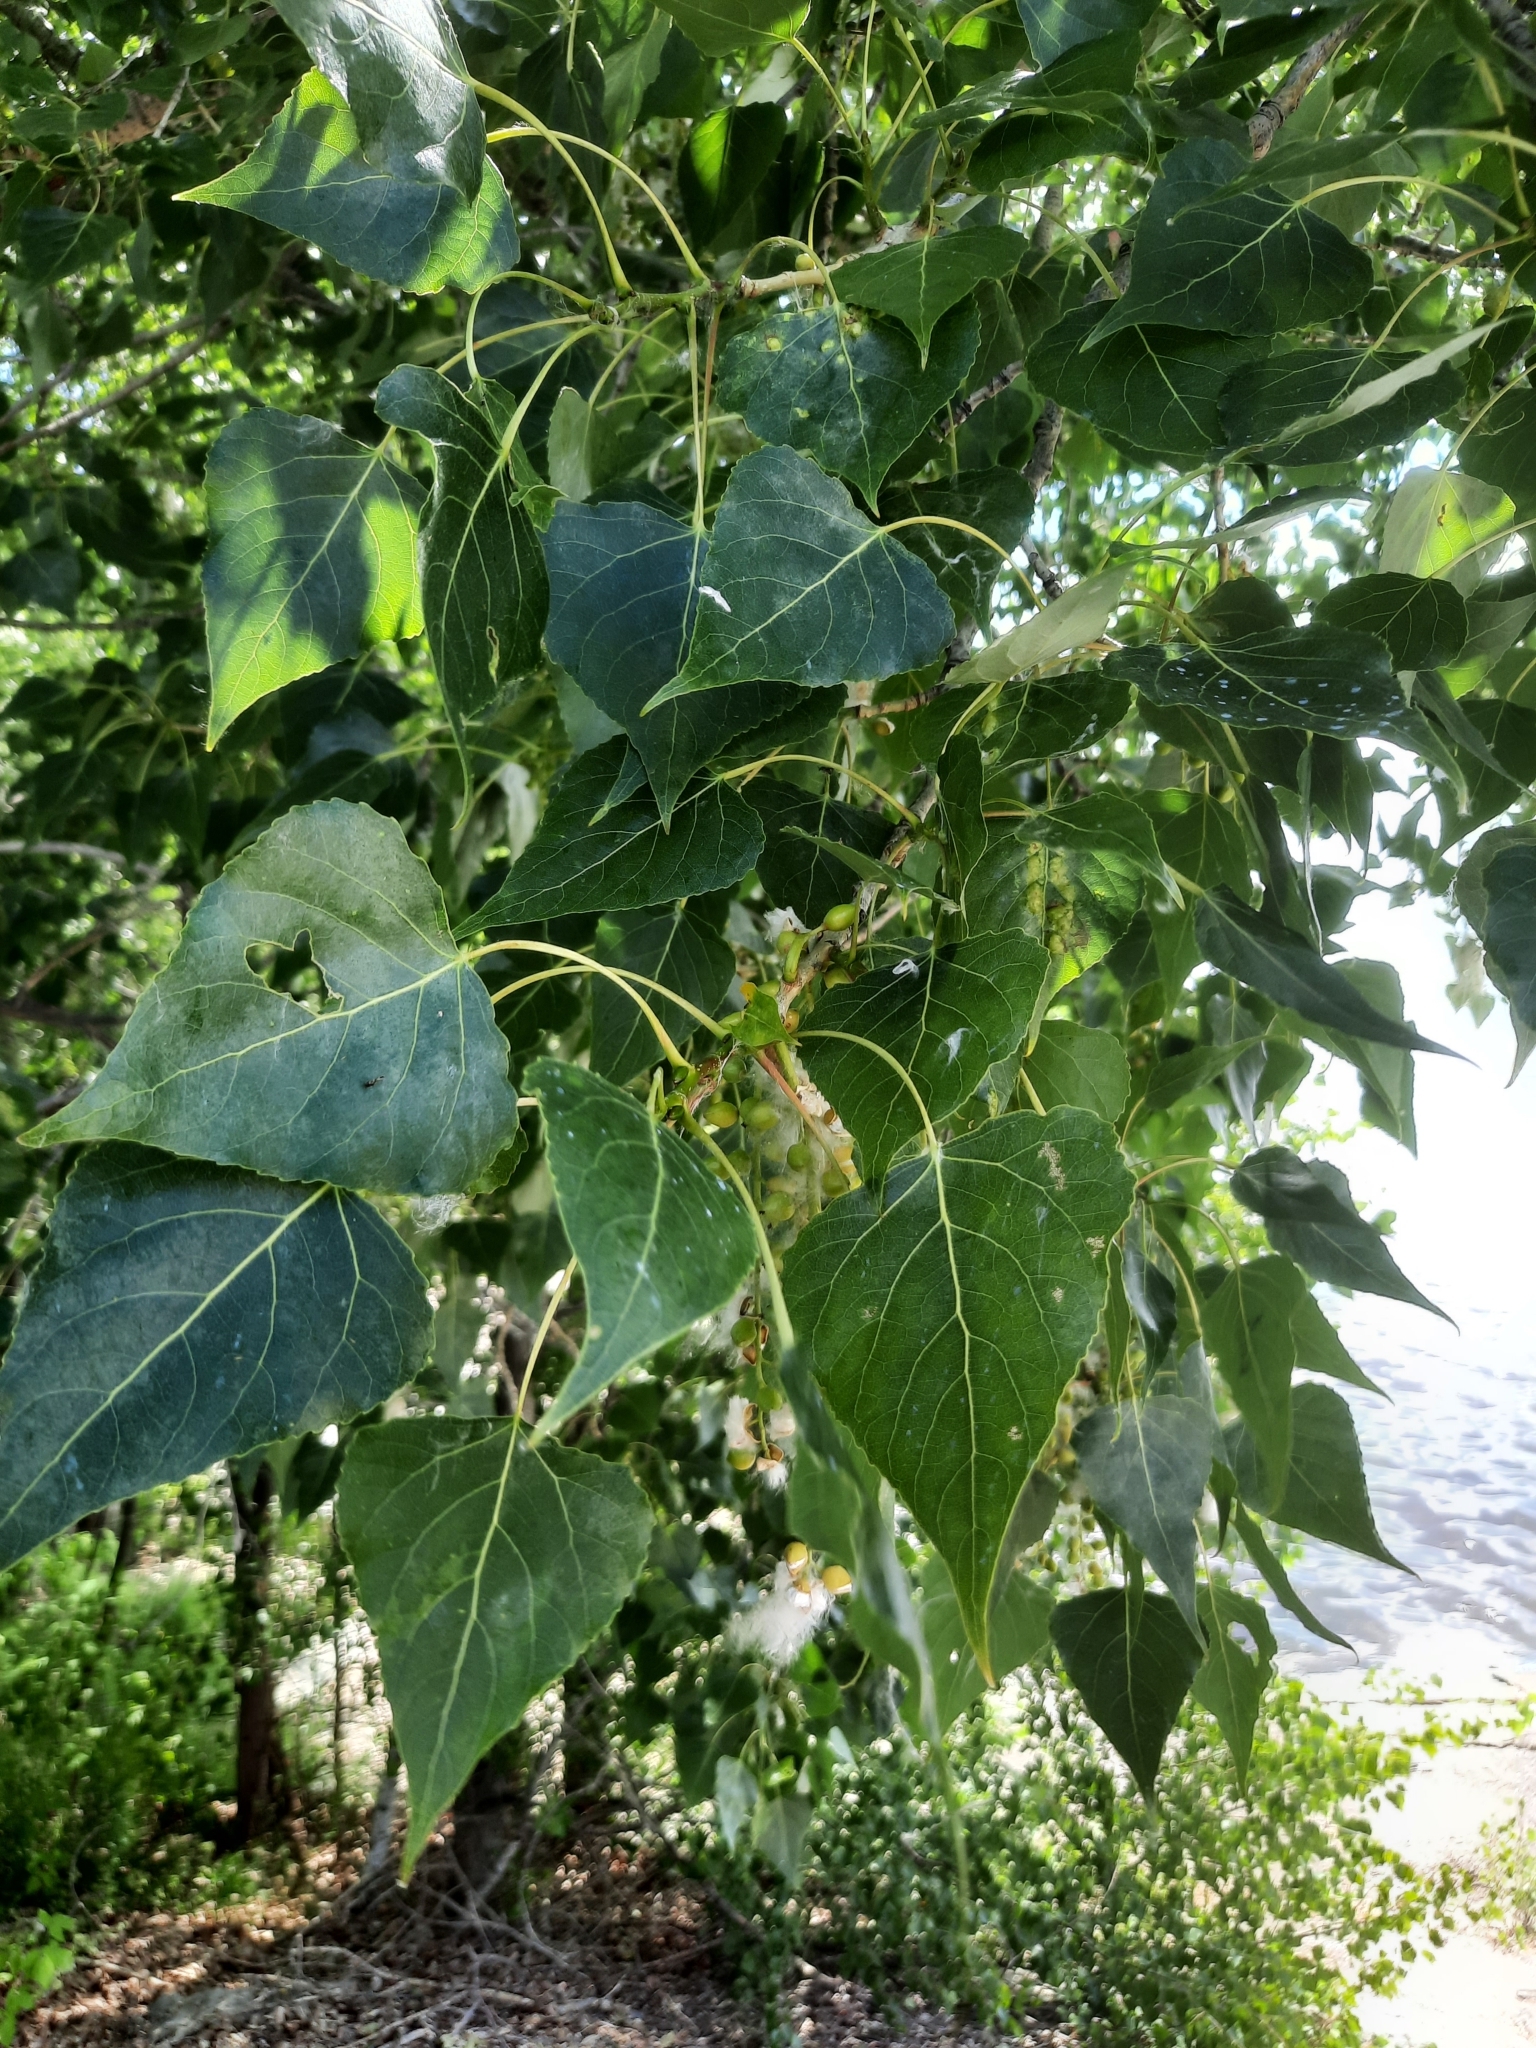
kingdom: Plantae
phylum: Tracheophyta
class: Magnoliopsida
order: Malpighiales
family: Salicaceae
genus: Populus
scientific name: Populus nigra
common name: Black poplar
